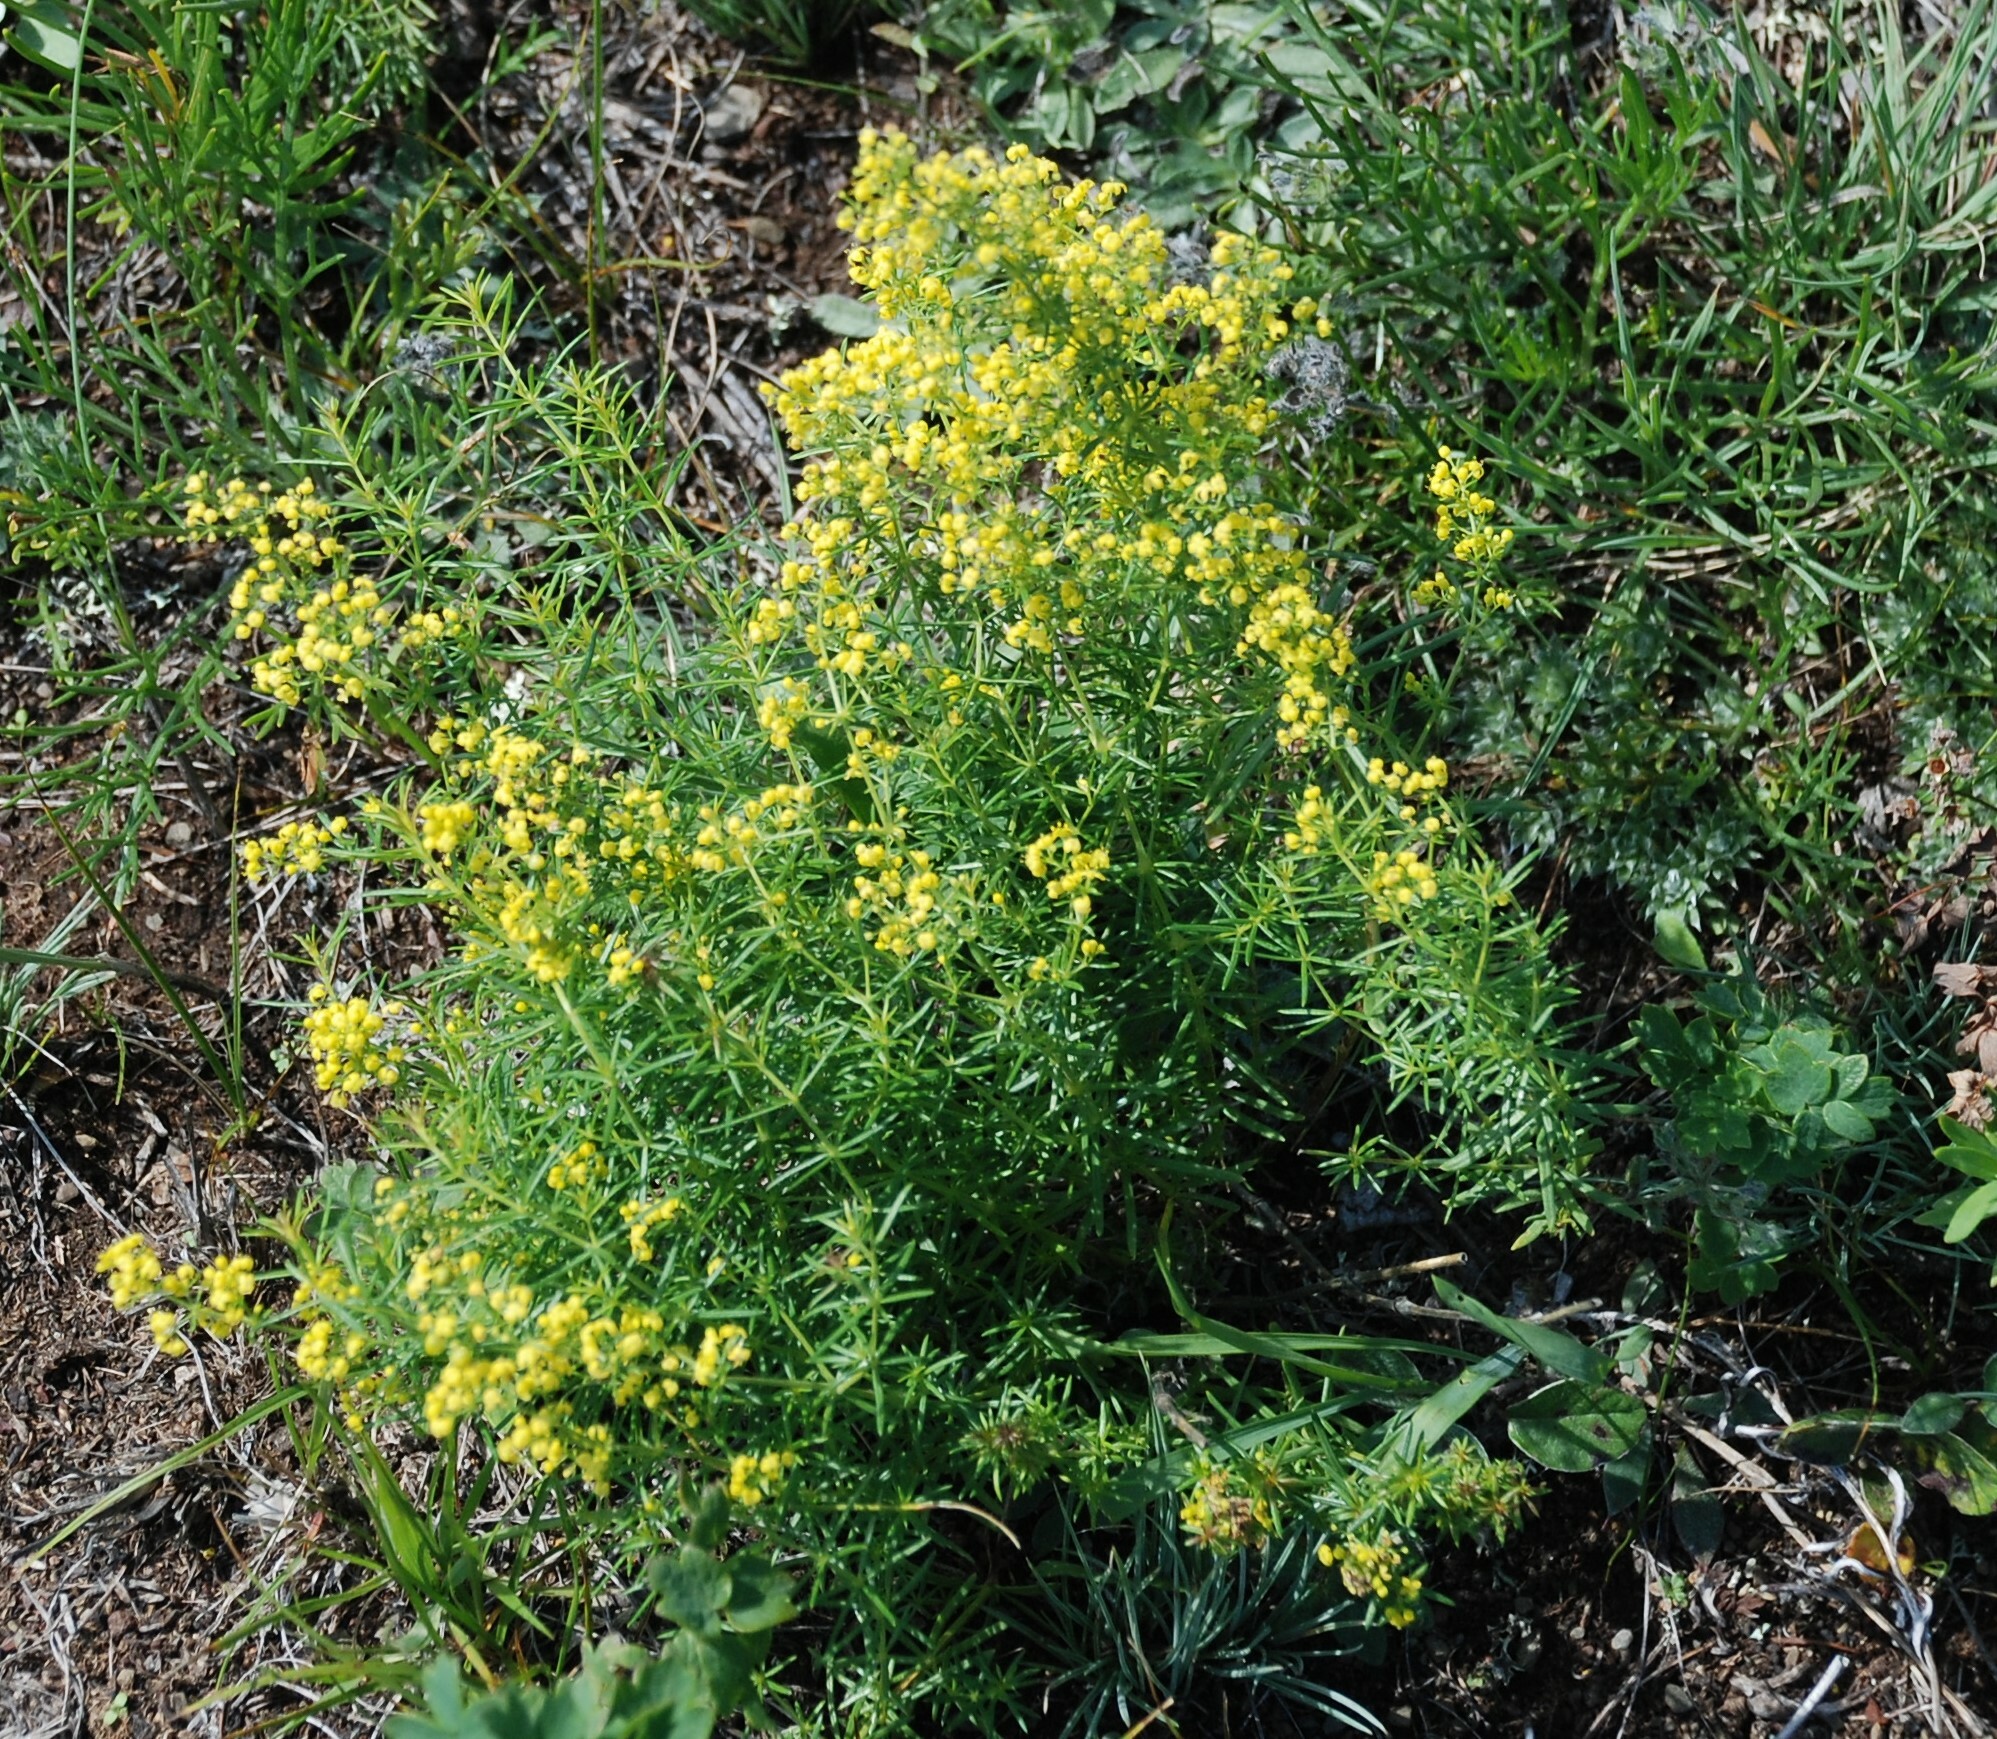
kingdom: Plantae
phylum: Tracheophyta
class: Magnoliopsida
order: Gentianales
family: Rubiaceae
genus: Galium
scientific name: Galium verum
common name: Lady's bedstraw
